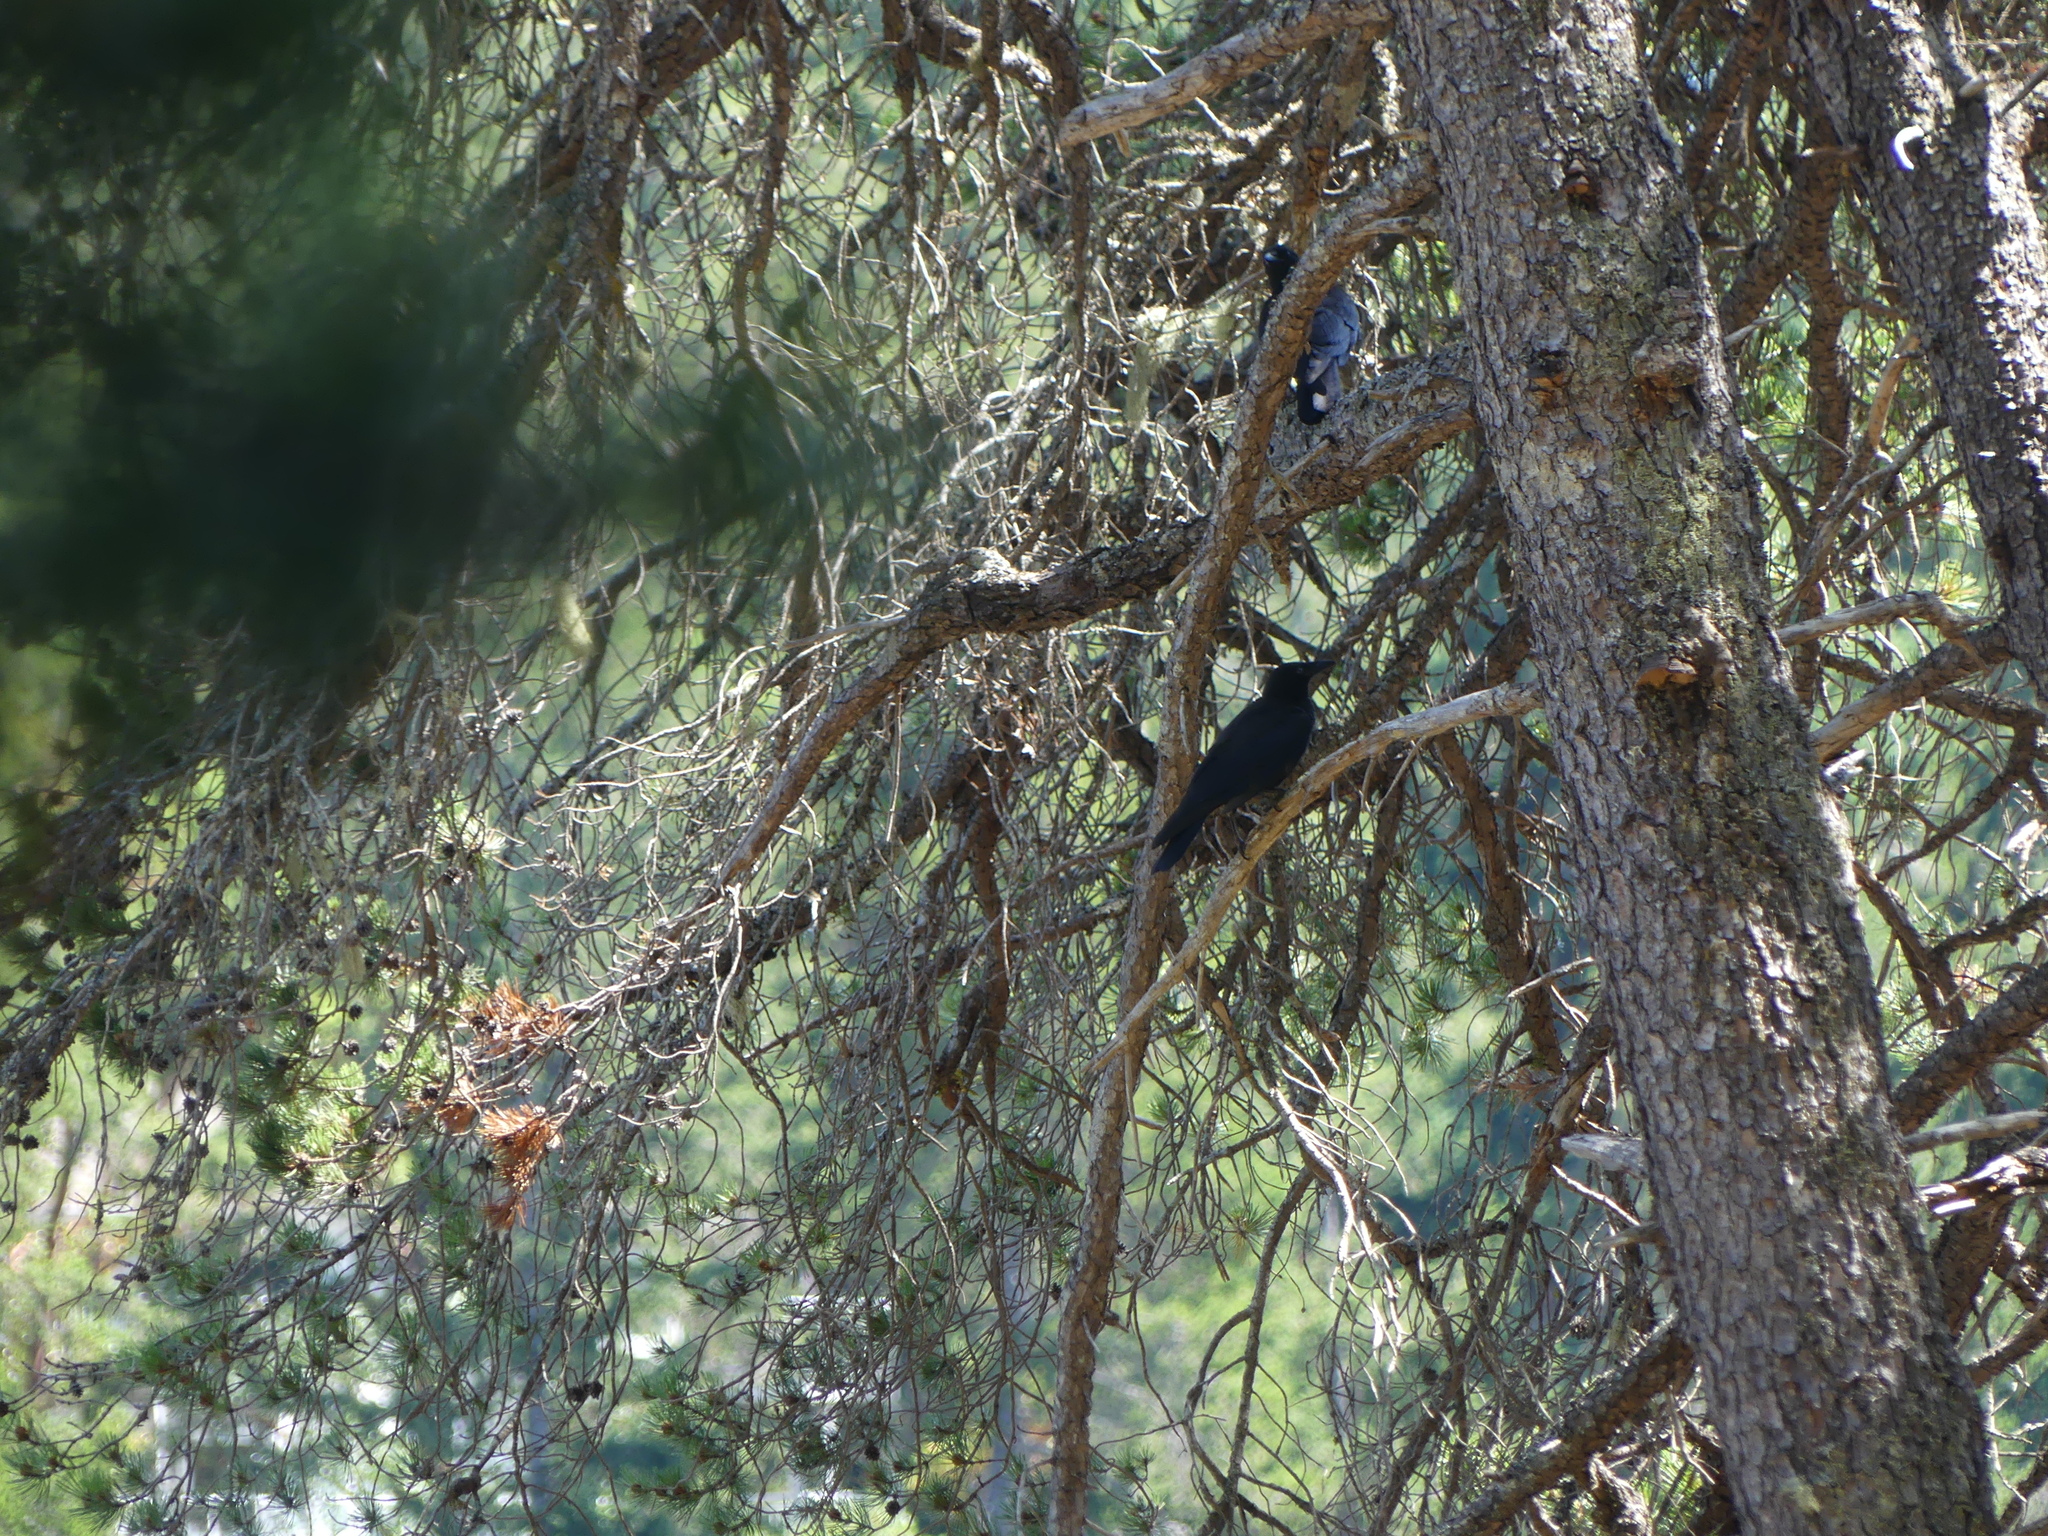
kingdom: Animalia
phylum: Chordata
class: Aves
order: Passeriformes
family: Corvidae
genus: Corvus
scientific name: Corvus brachyrhynchos
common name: American crow
